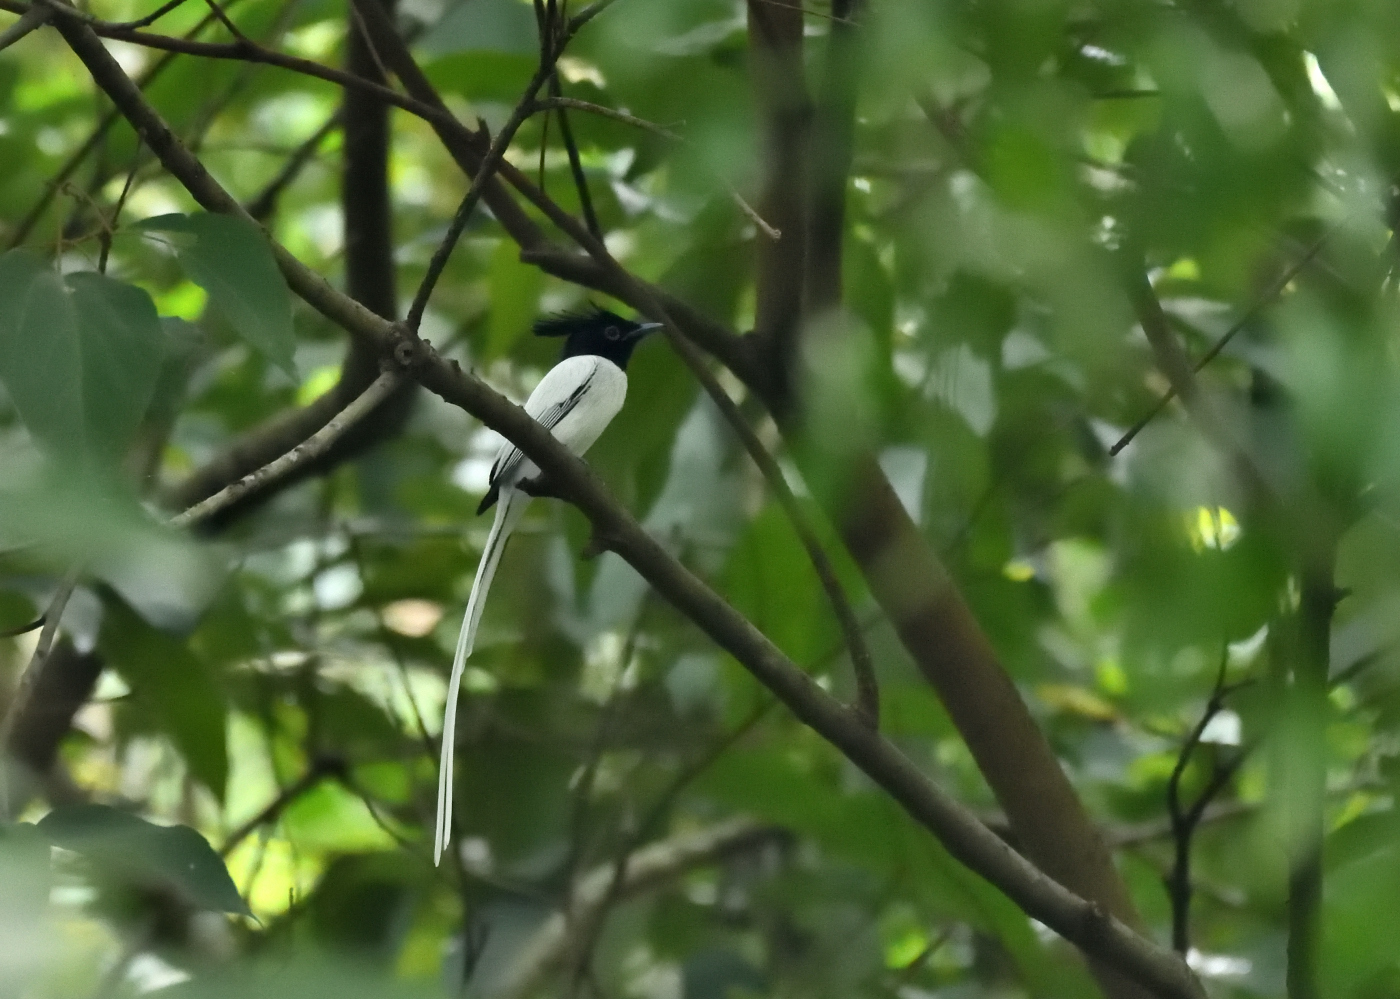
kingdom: Animalia
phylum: Chordata
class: Aves
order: Passeriformes
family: Monarchidae
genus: Terpsiphone
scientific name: Terpsiphone paradisi
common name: Indian paradise flycatcher
